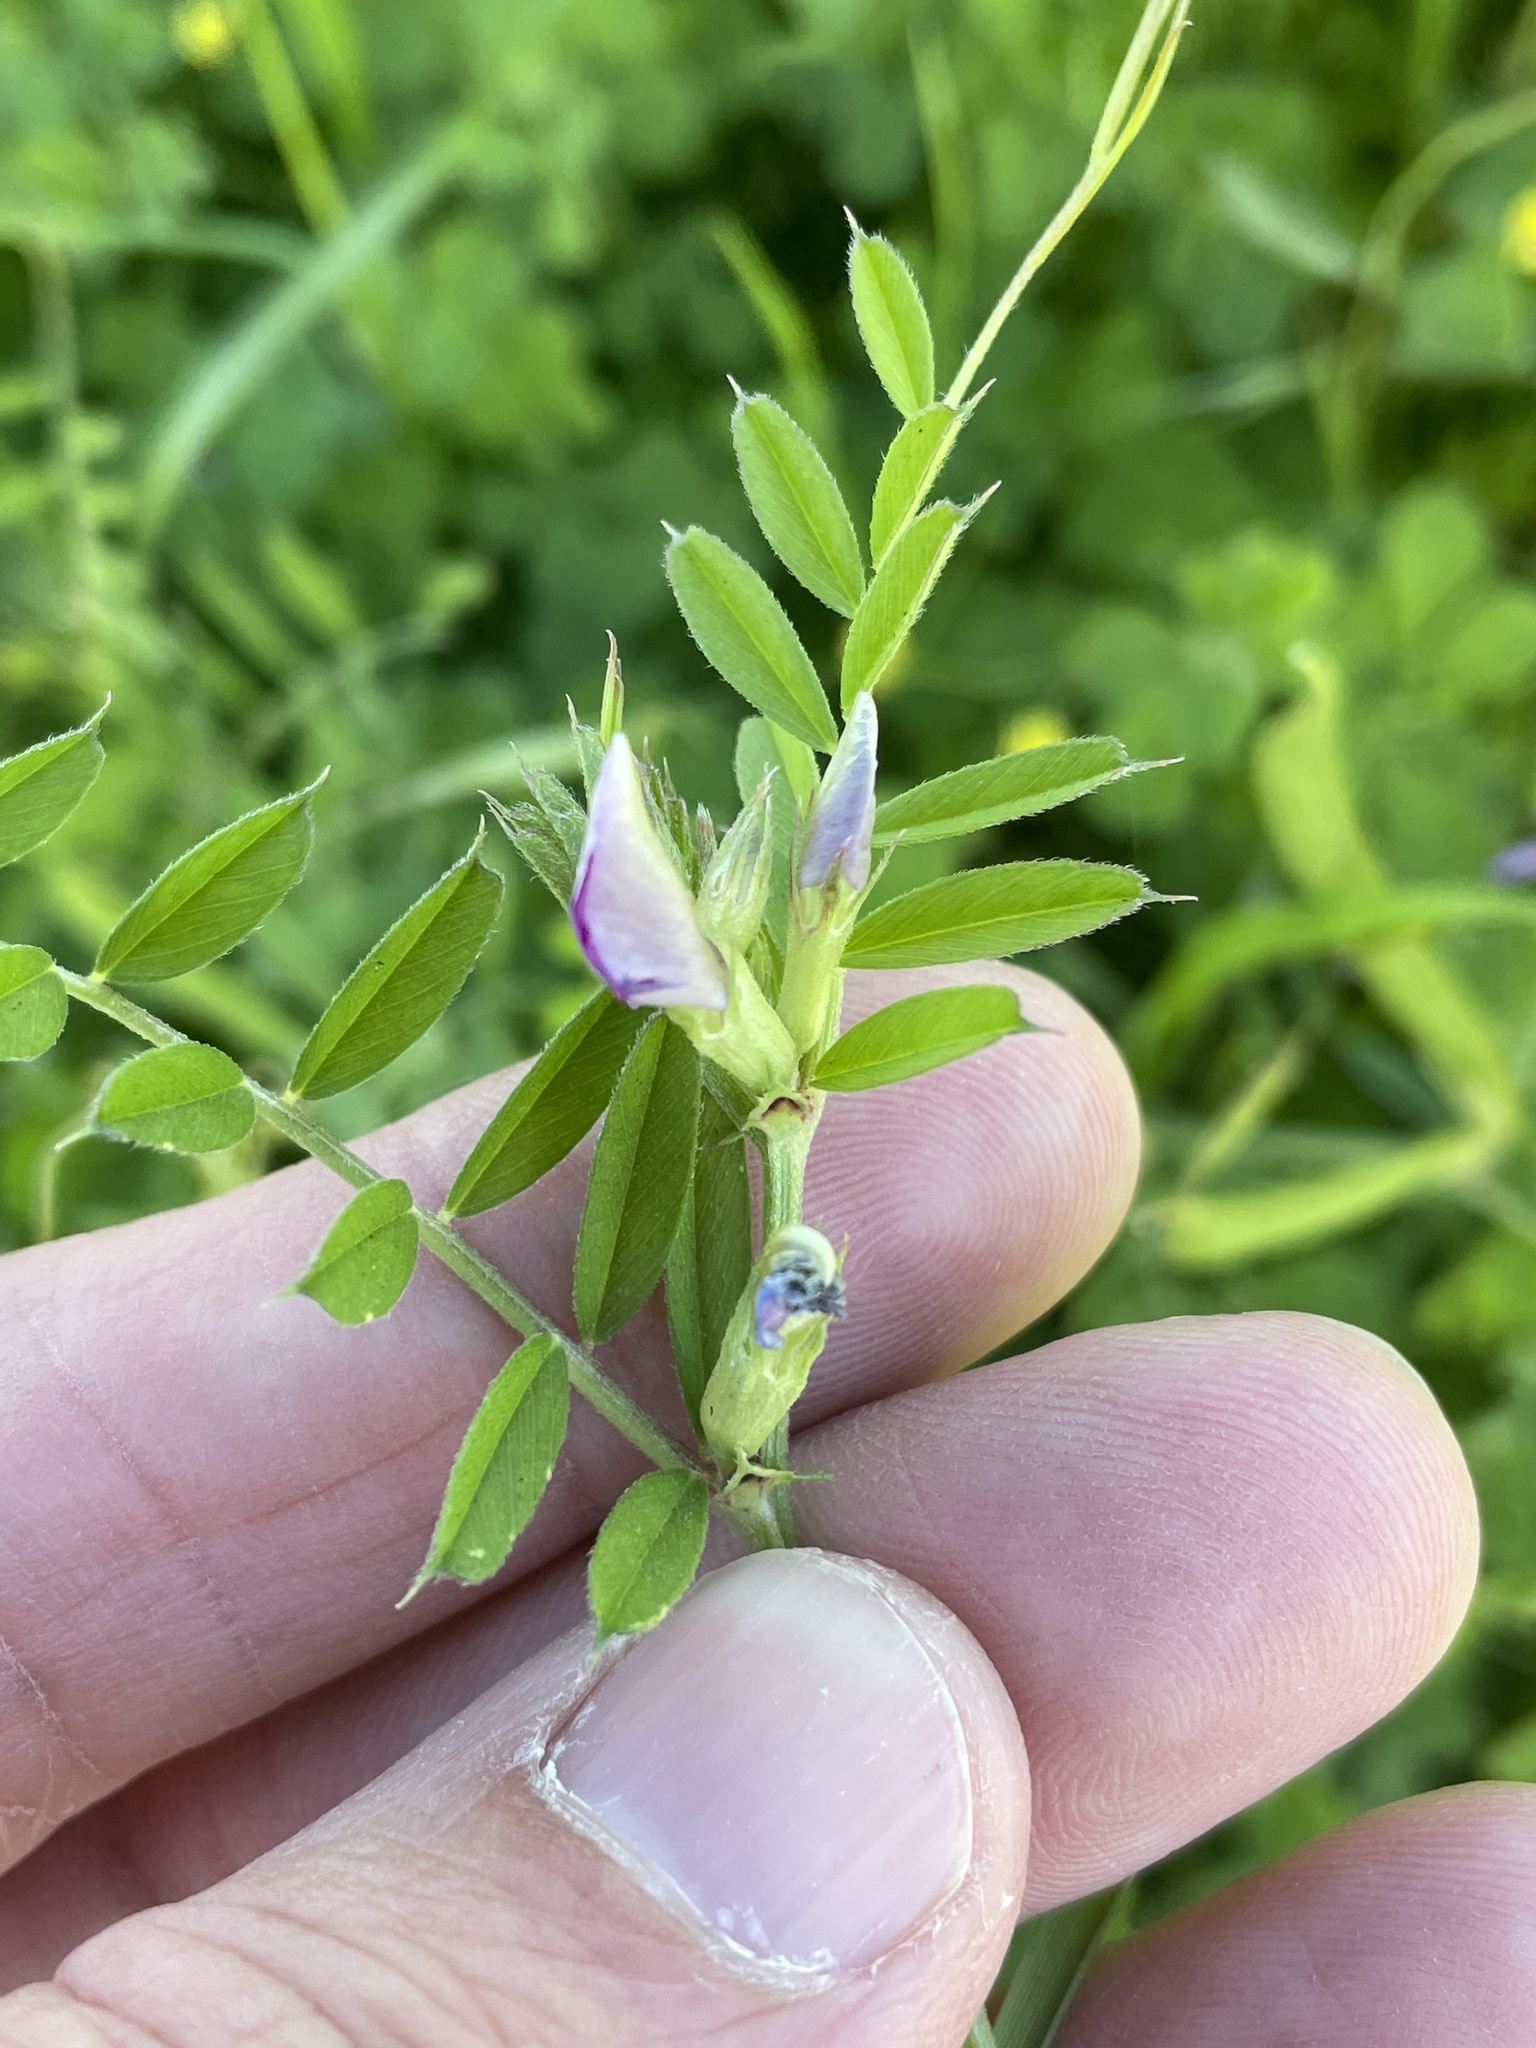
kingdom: Plantae
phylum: Tracheophyta
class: Magnoliopsida
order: Fabales
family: Fabaceae
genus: Vicia
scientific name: Vicia sativa
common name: Garden vetch
